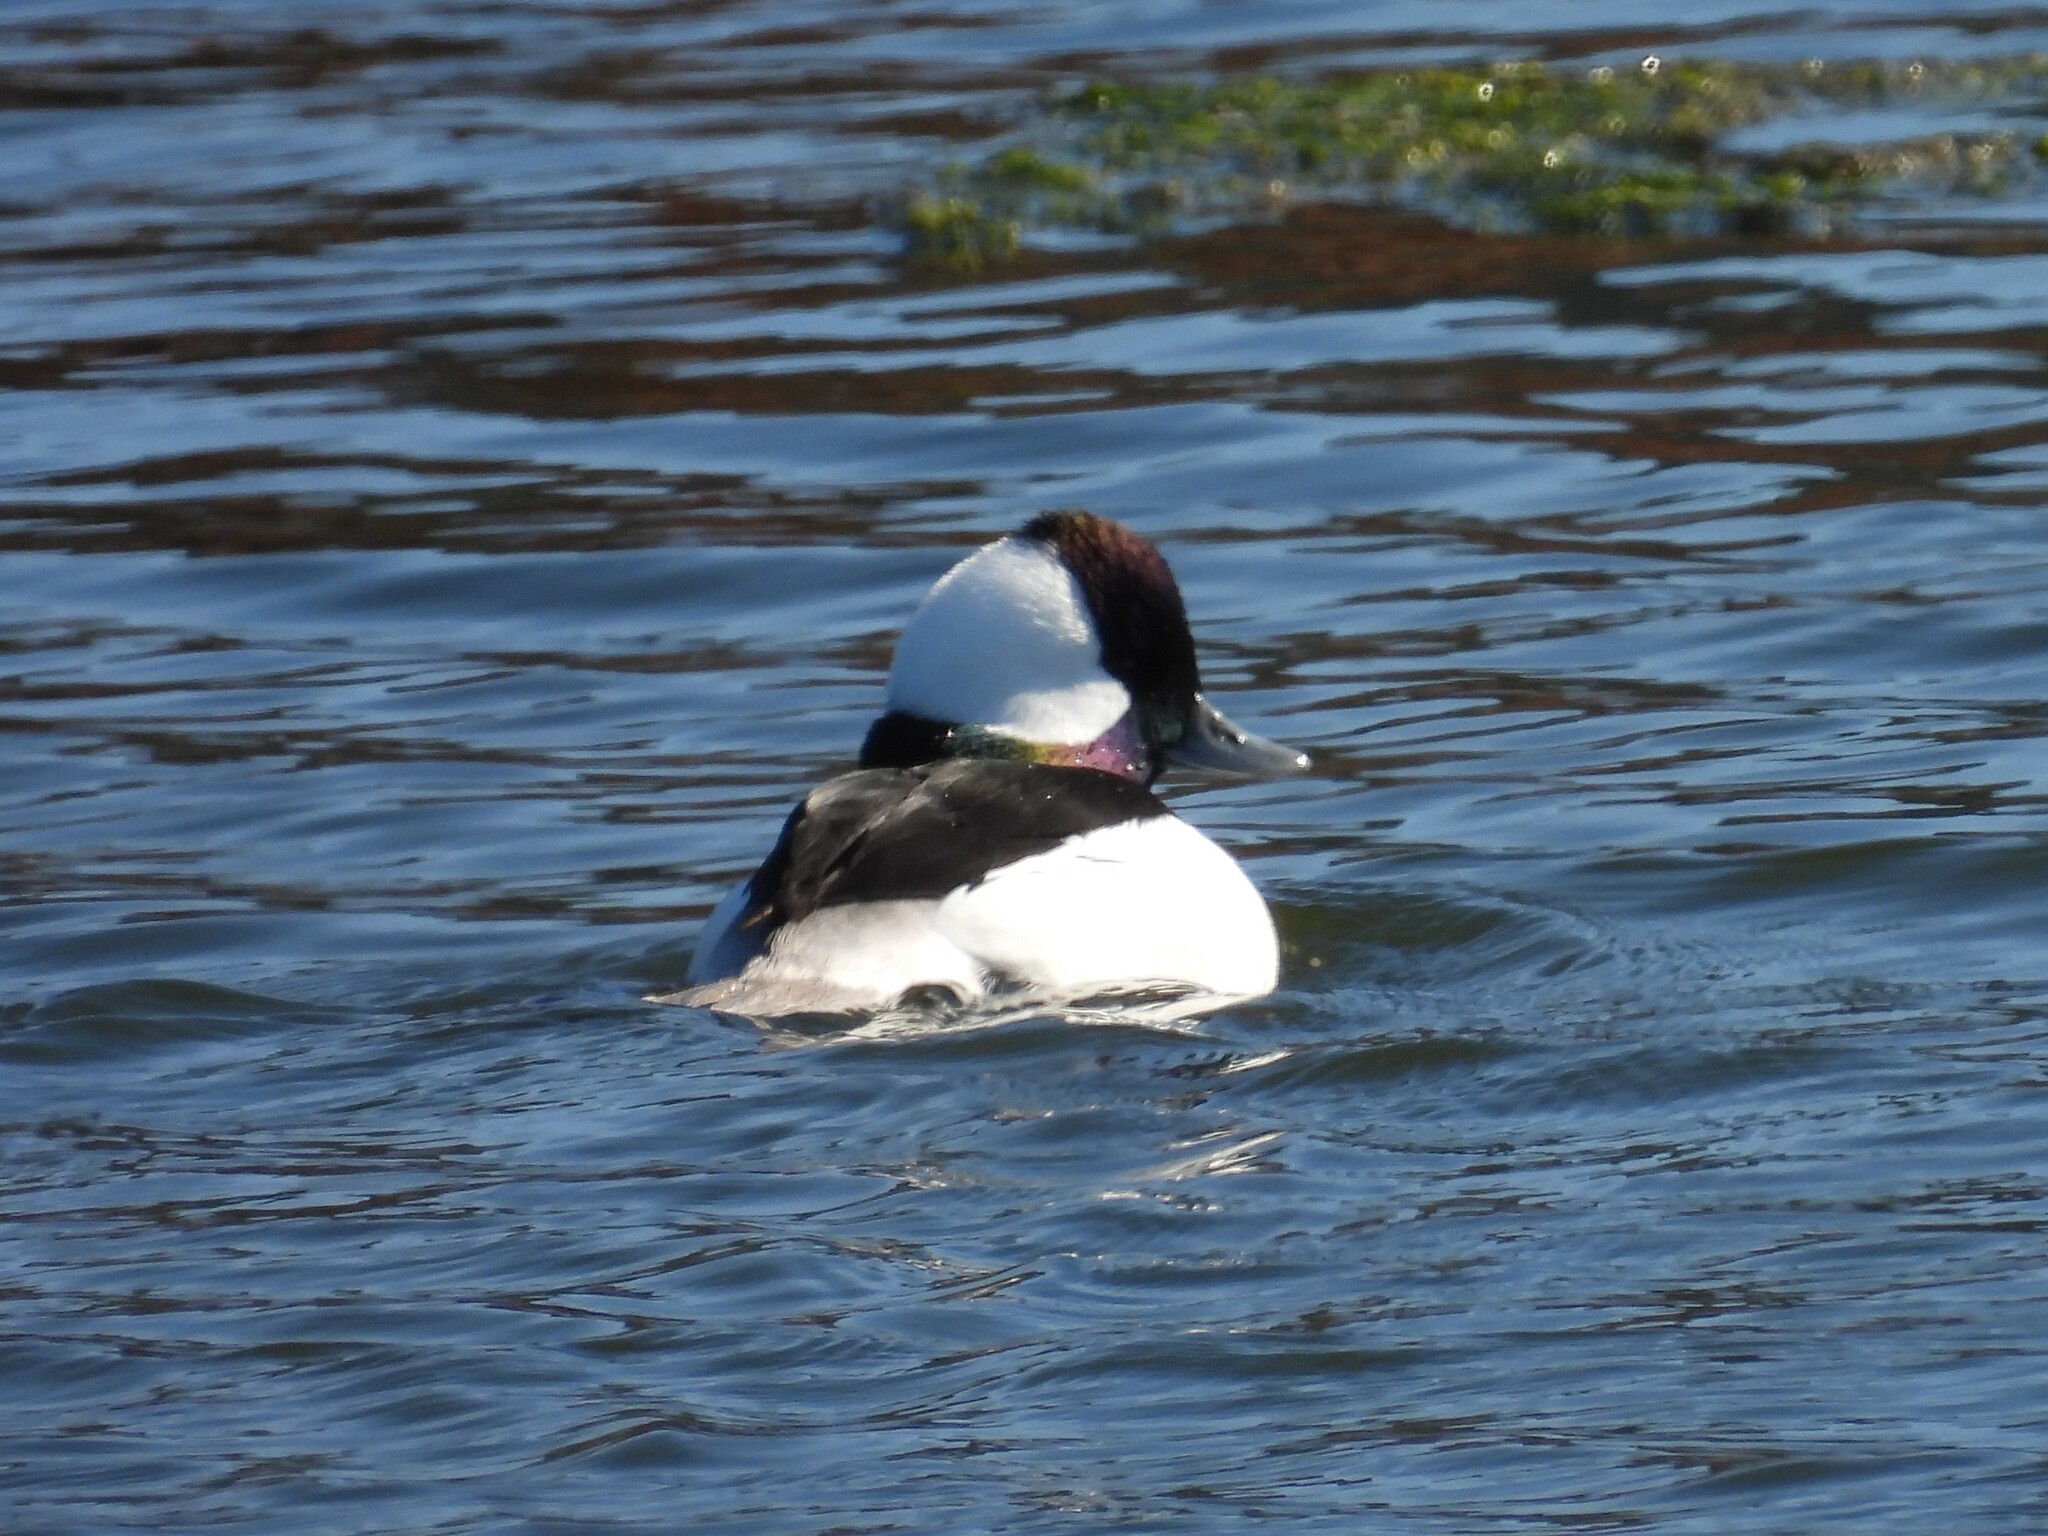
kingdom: Animalia
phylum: Chordata
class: Aves
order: Anseriformes
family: Anatidae
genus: Bucephala
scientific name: Bucephala albeola
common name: Bufflehead
